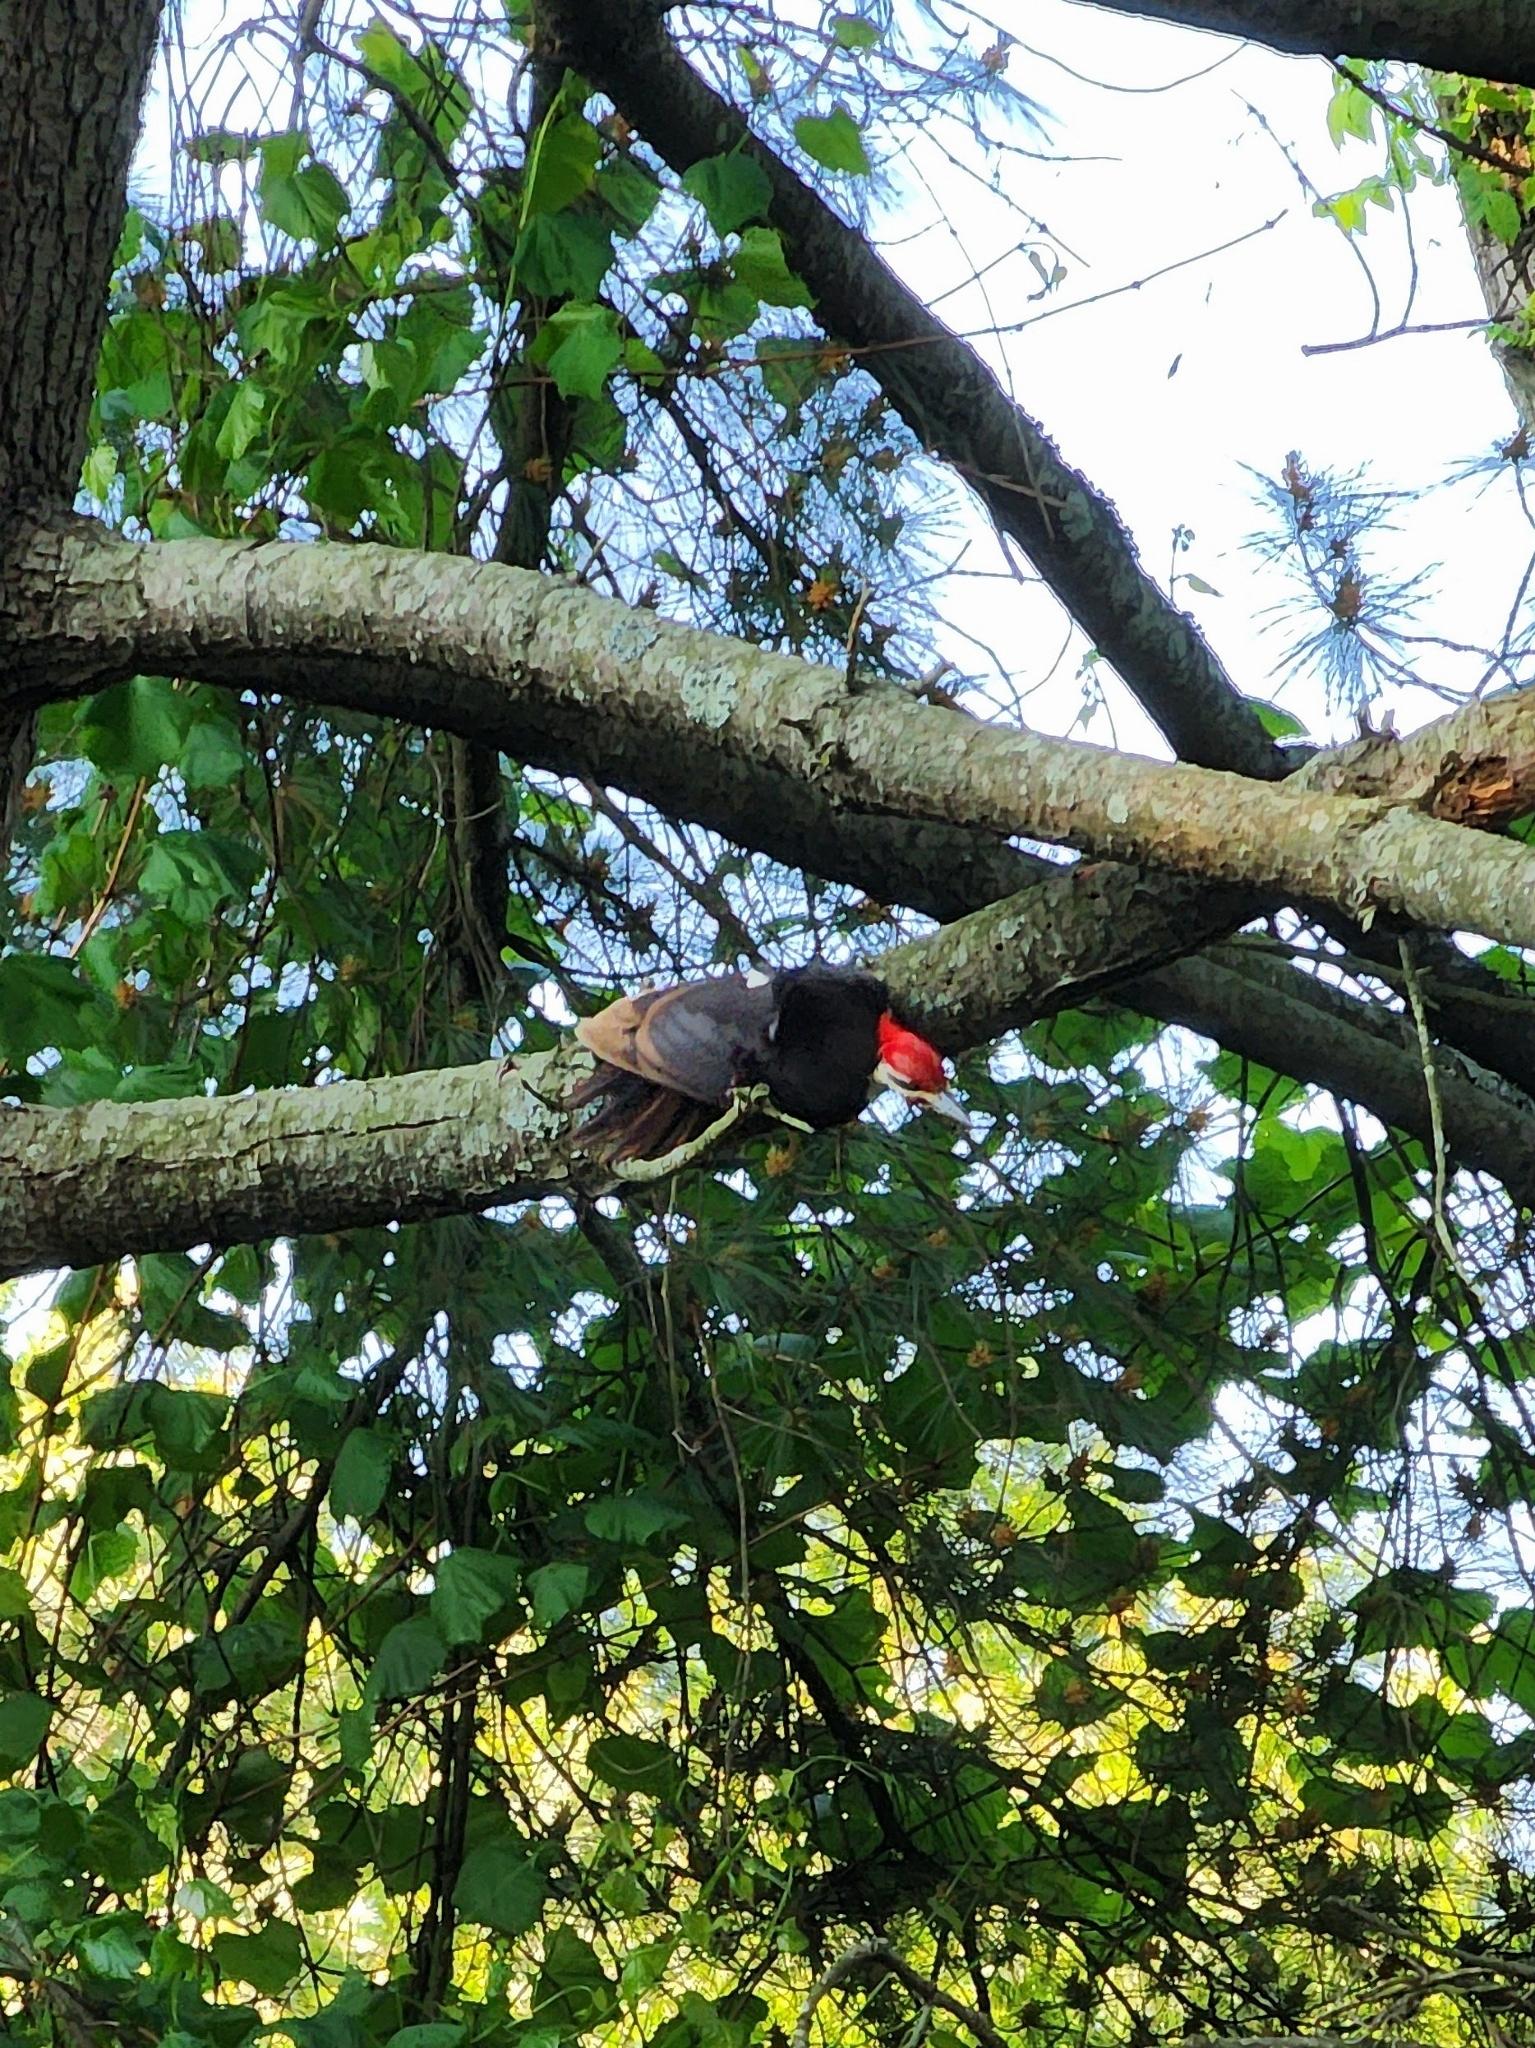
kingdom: Animalia
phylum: Chordata
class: Aves
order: Piciformes
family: Picidae
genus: Dryocopus
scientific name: Dryocopus pileatus
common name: Pileated woodpecker
